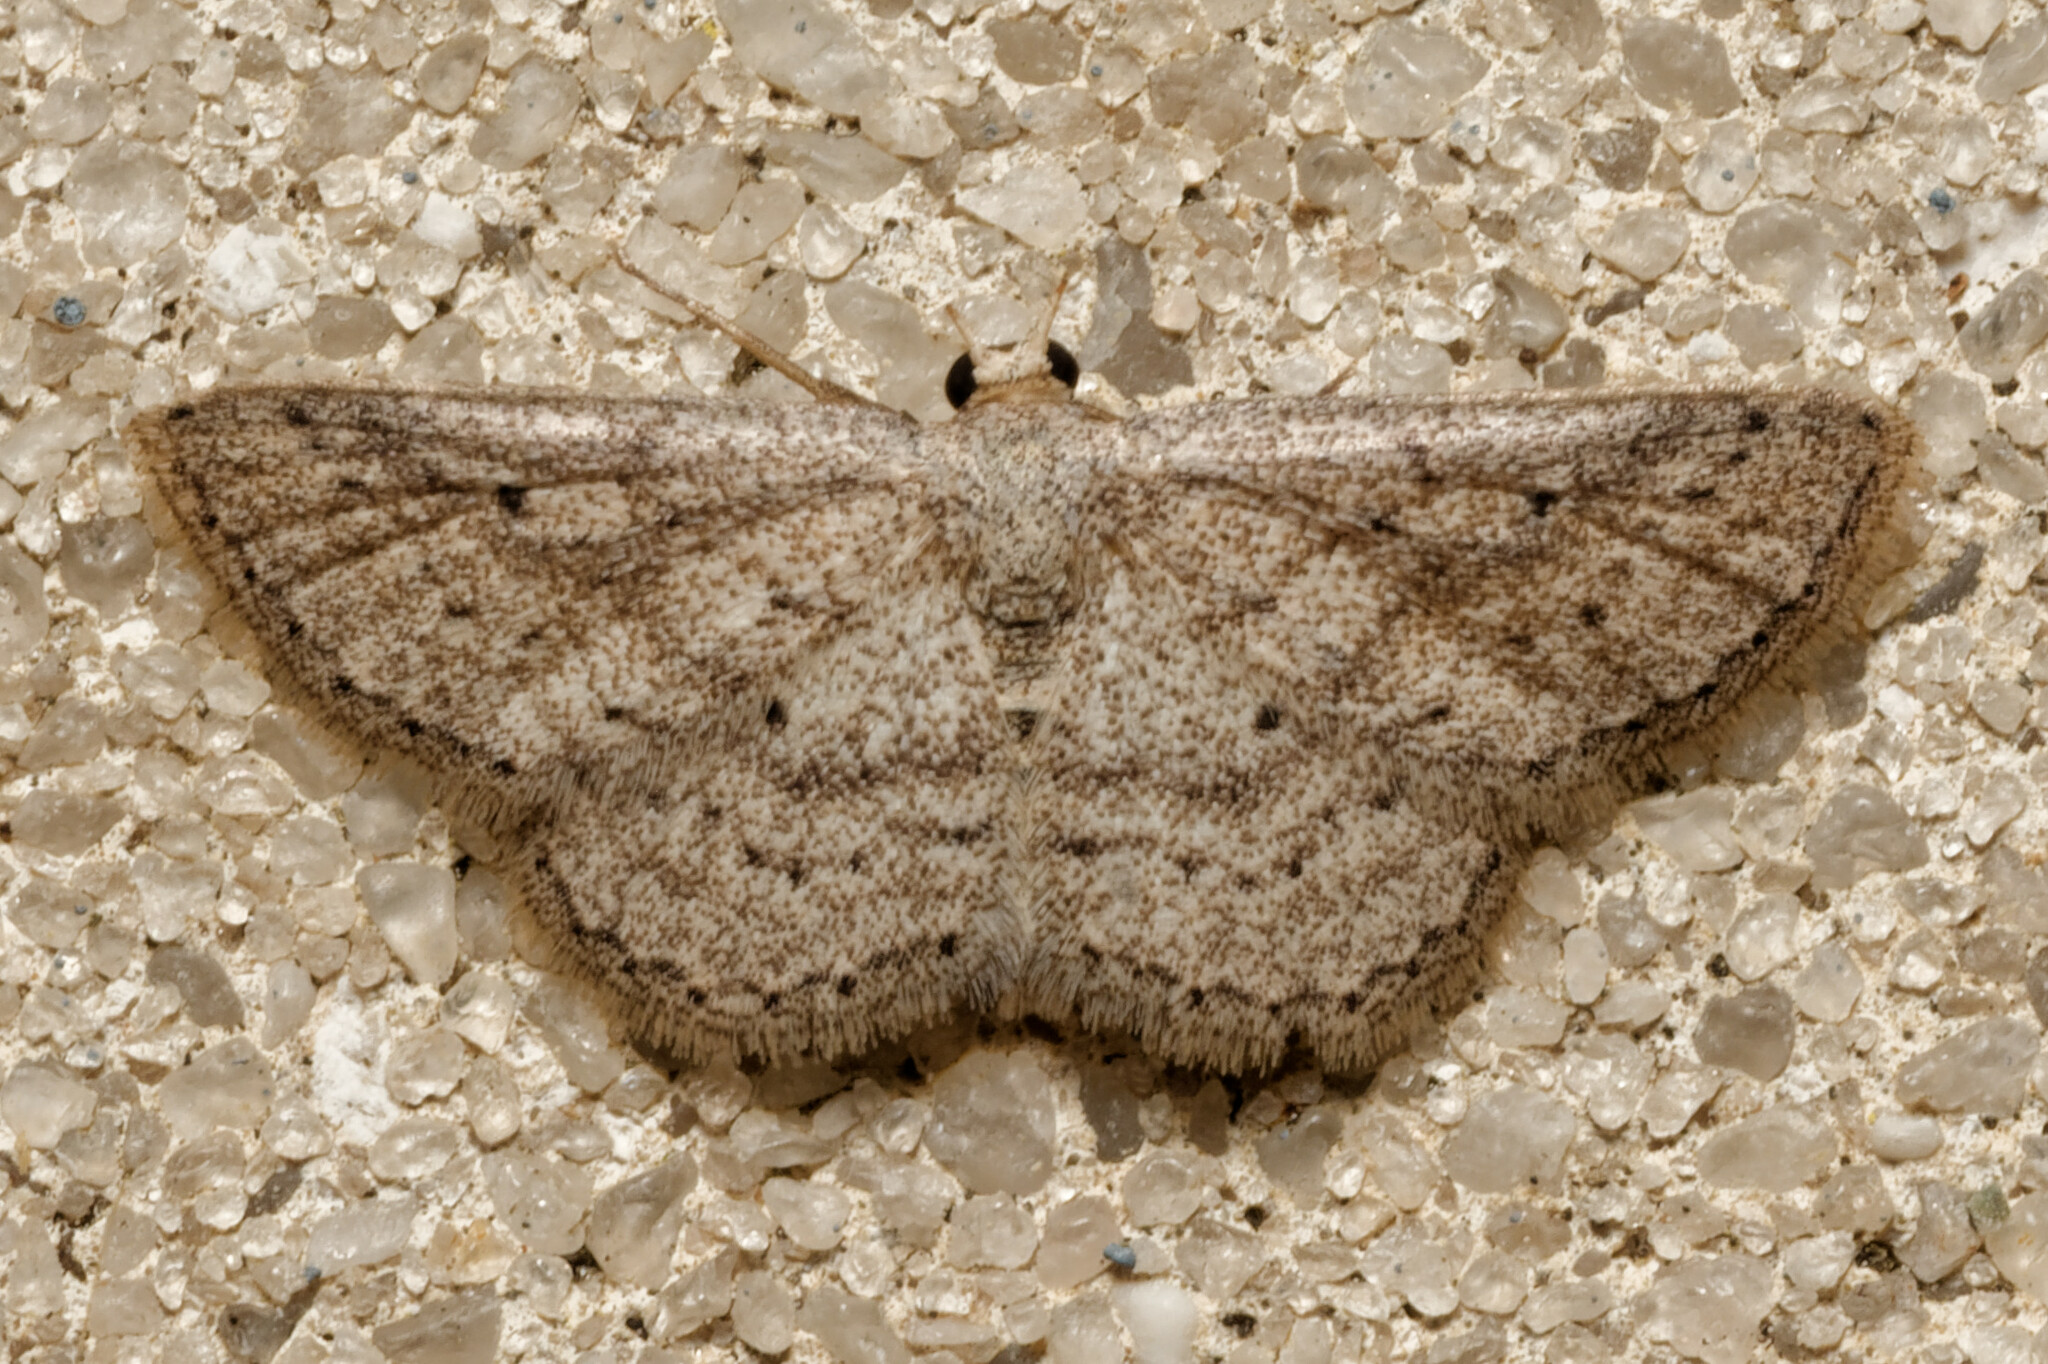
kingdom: Animalia
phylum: Arthropoda
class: Insecta
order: Lepidoptera
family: Geometridae
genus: Lobocleta
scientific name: Lobocleta ossularia
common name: Drab brown wave
